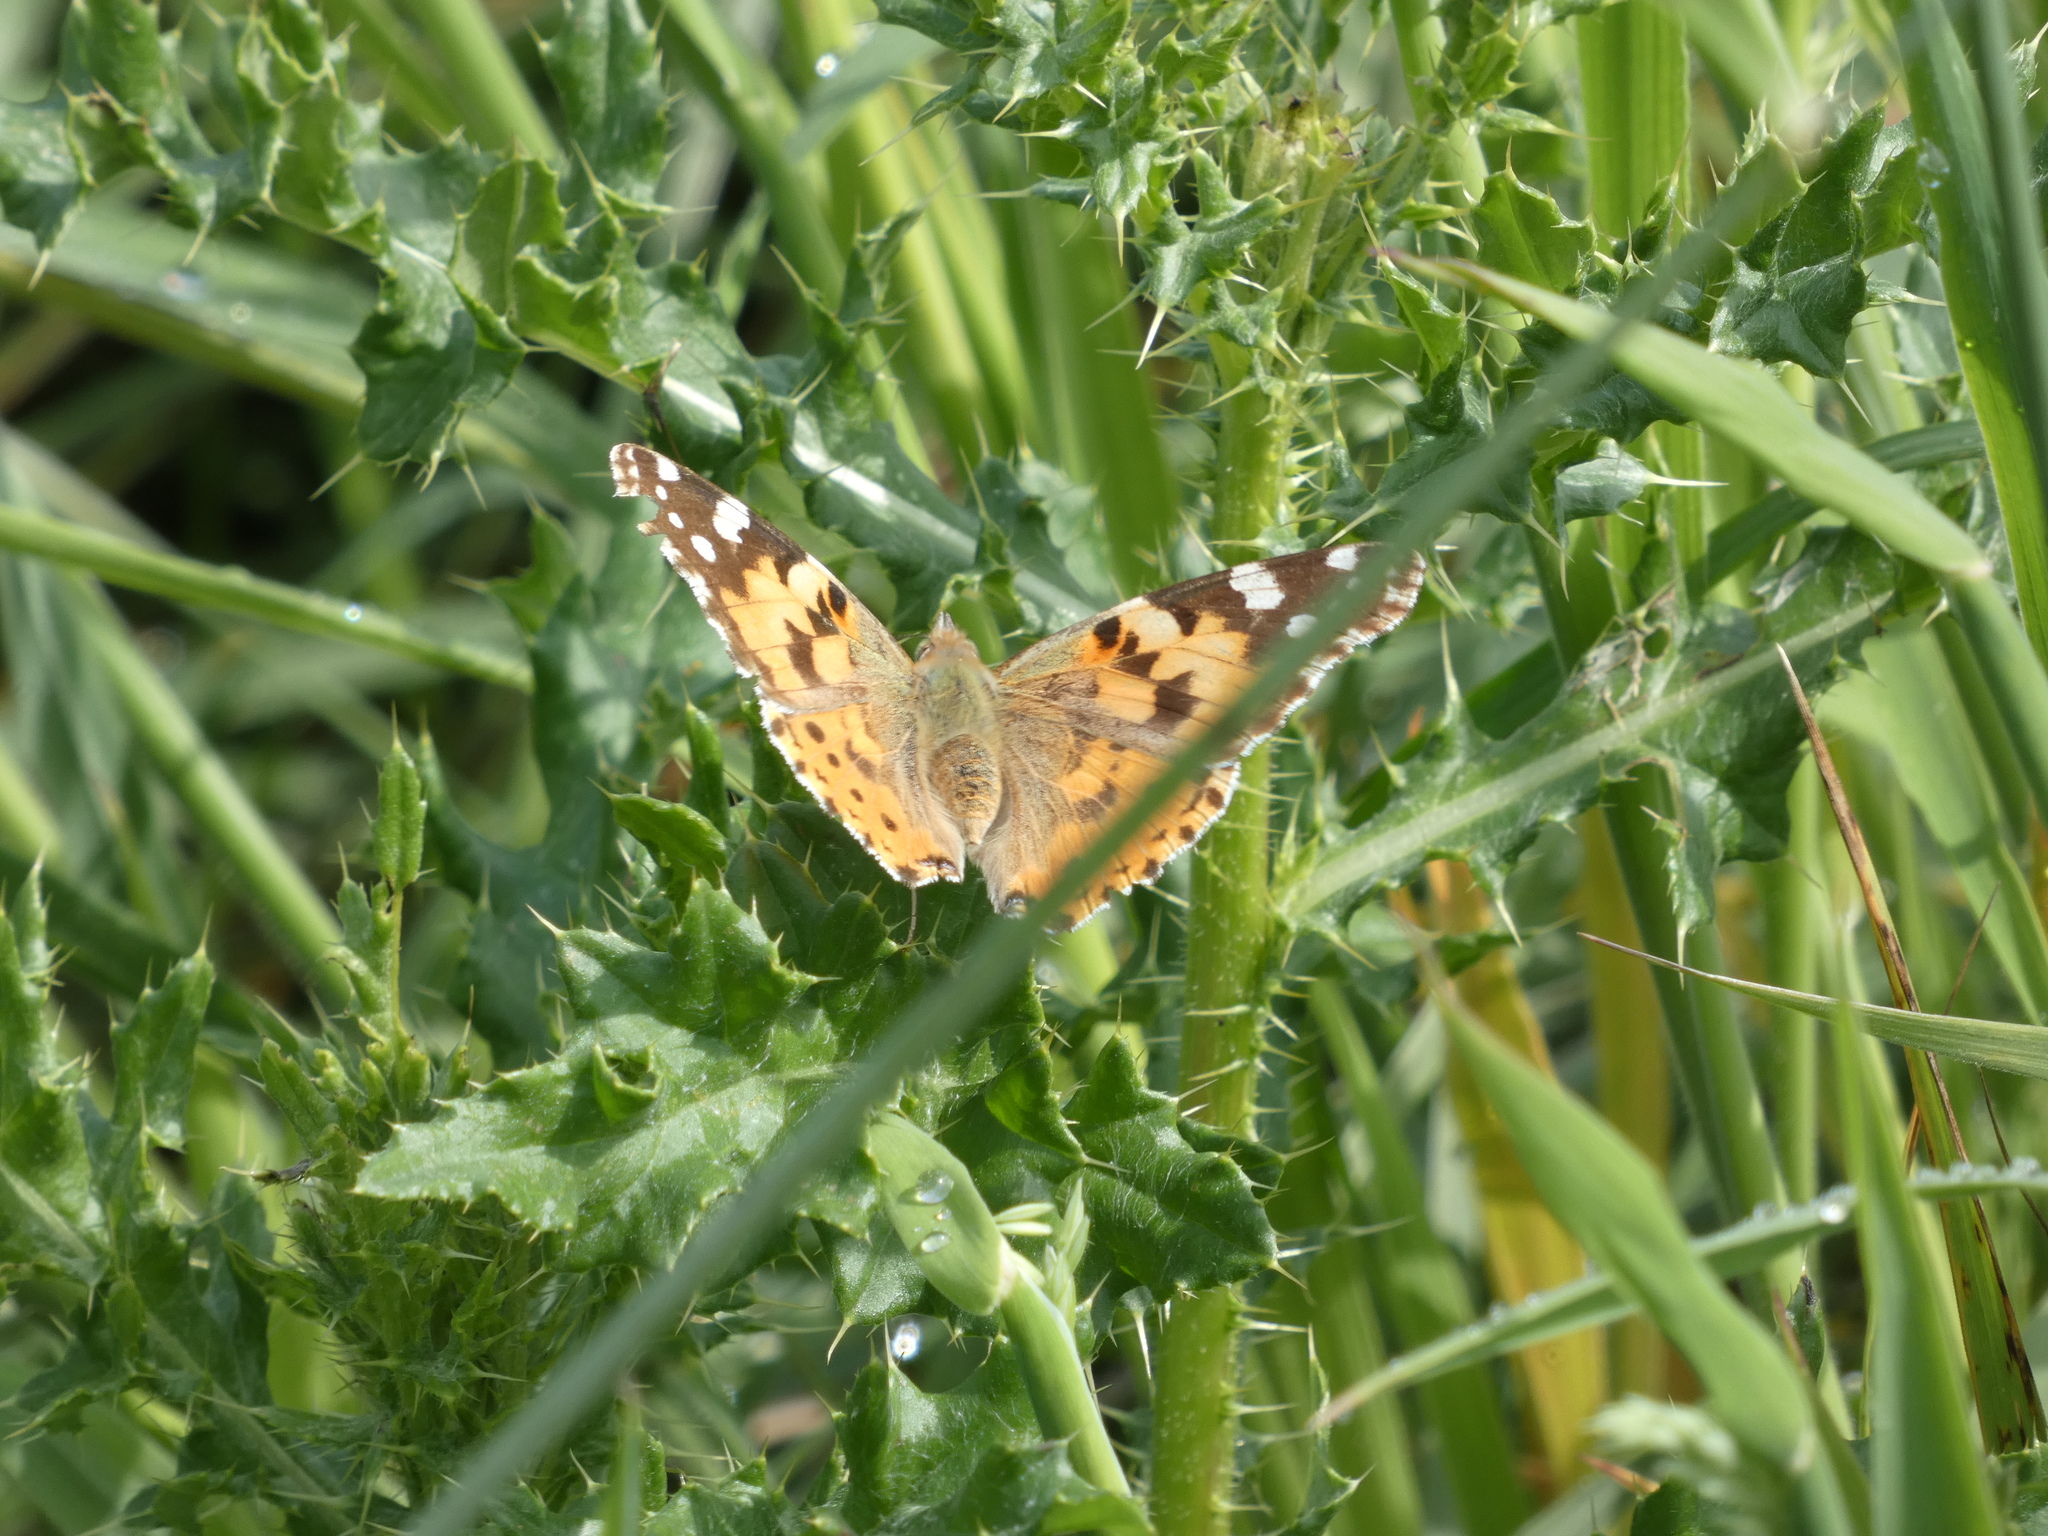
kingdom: Animalia
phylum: Arthropoda
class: Insecta
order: Lepidoptera
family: Nymphalidae
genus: Vanessa
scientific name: Vanessa cardui
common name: Painted lady
